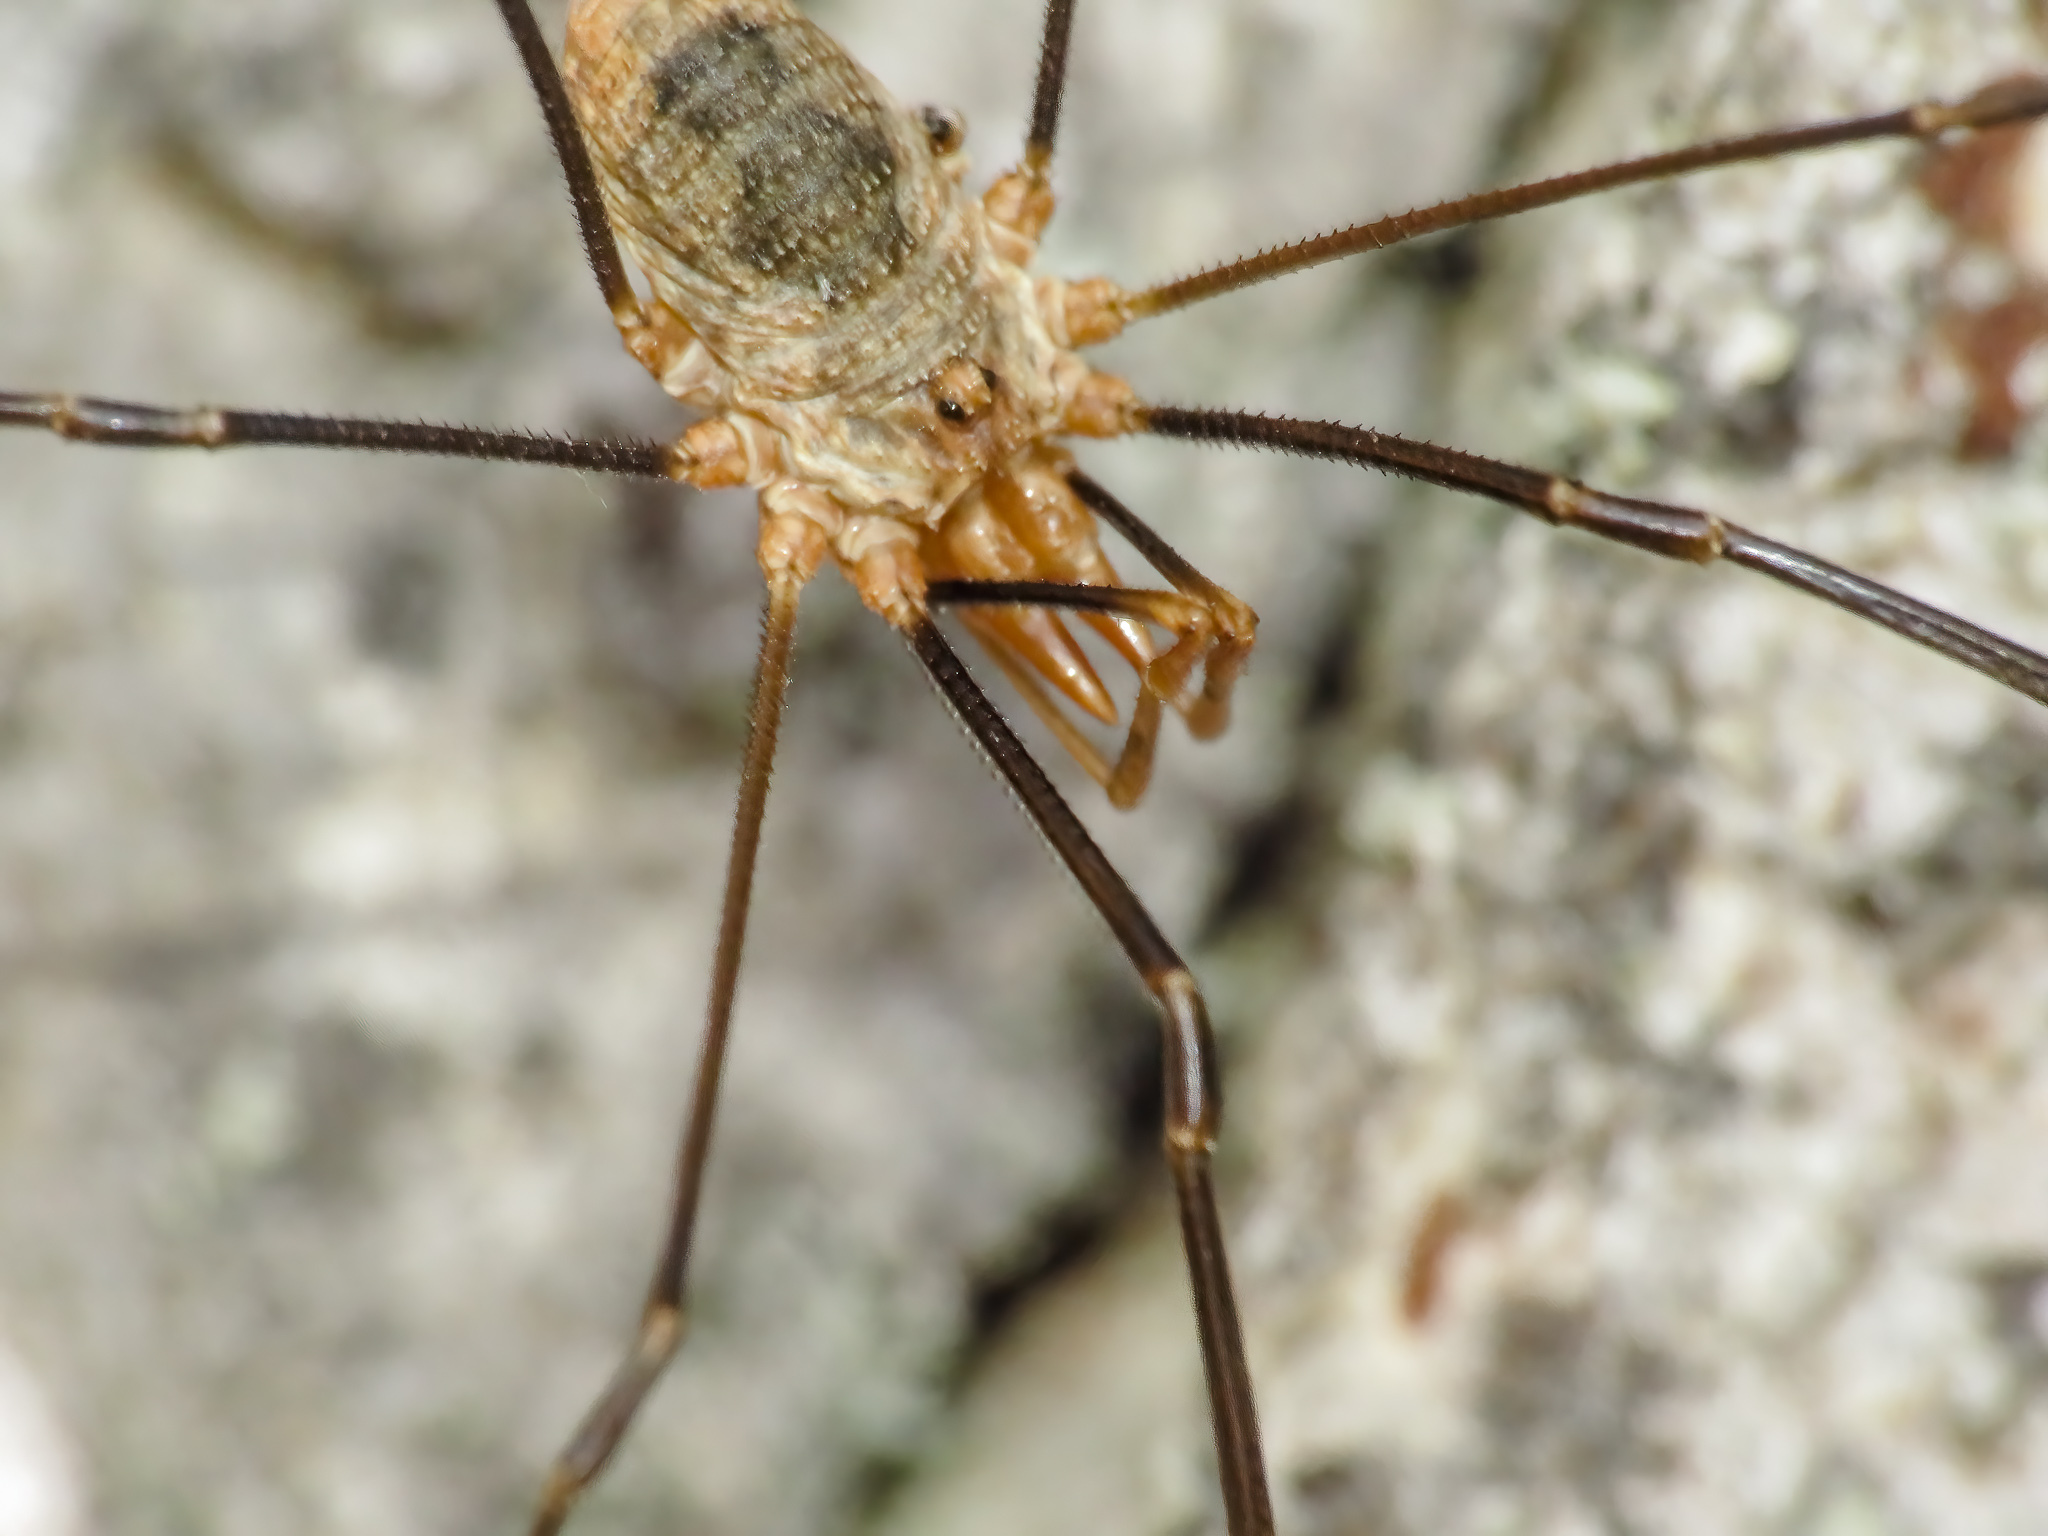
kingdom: Animalia
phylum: Arthropoda
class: Arachnida
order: Opiliones
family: Phalangiidae
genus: Phalangium
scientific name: Phalangium opilio
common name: Daddy longleg
